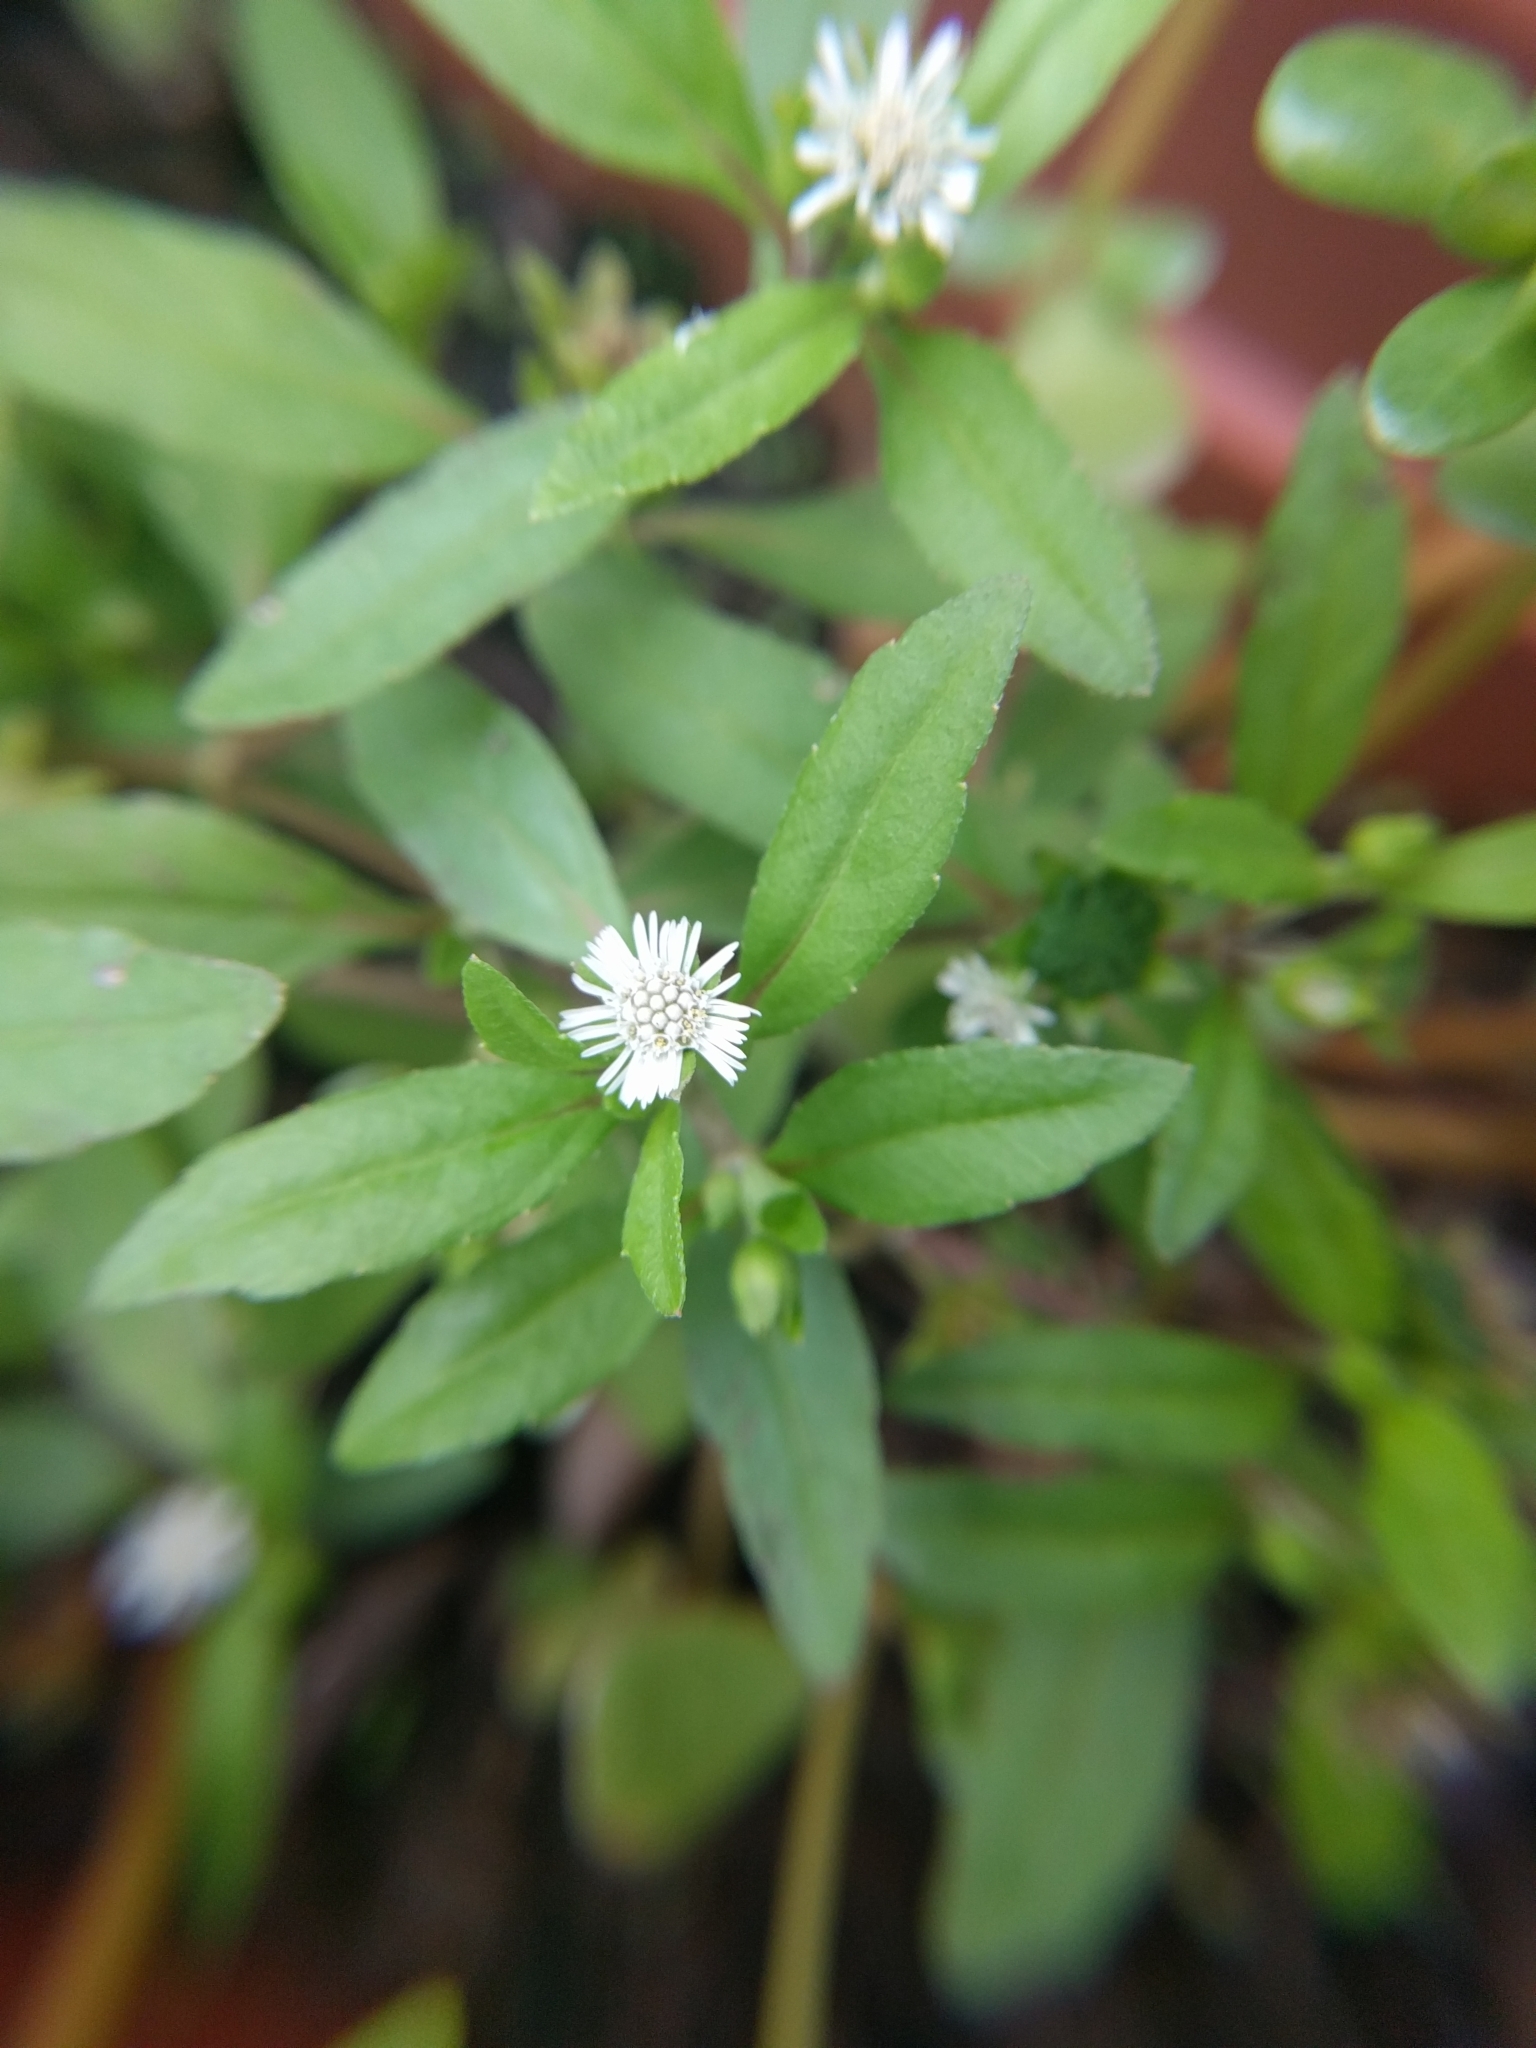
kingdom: Plantae
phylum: Tracheophyta
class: Magnoliopsida
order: Asterales
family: Asteraceae
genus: Eclipta
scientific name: Eclipta prostrata
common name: False daisy
